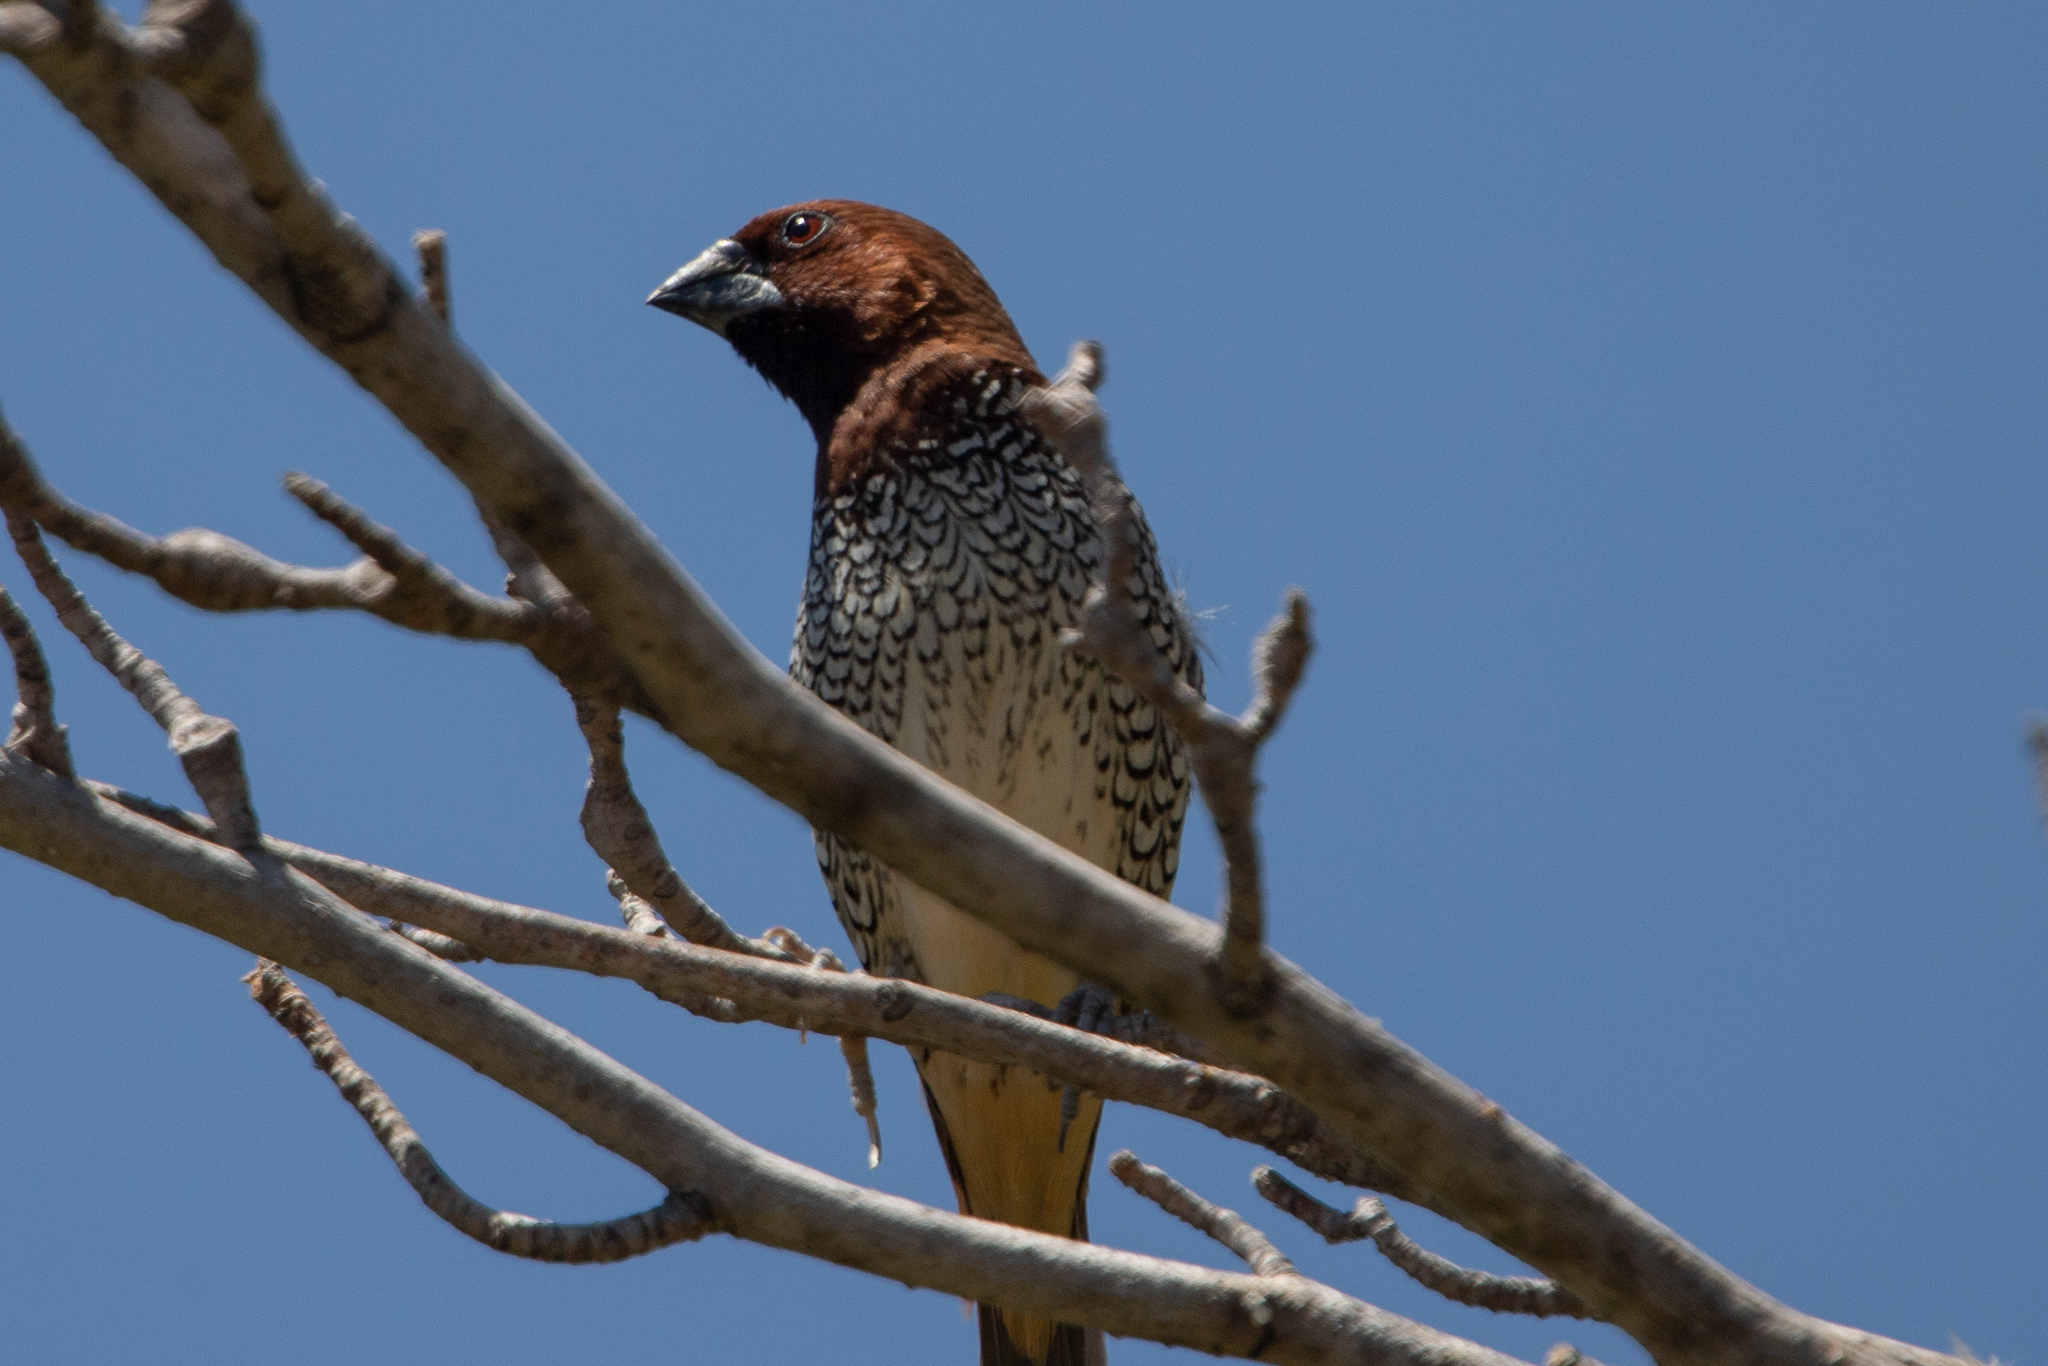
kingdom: Animalia
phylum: Chordata
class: Aves
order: Passeriformes
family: Estrildidae
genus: Lonchura
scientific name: Lonchura punctulata
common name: Scaly-breasted munia
